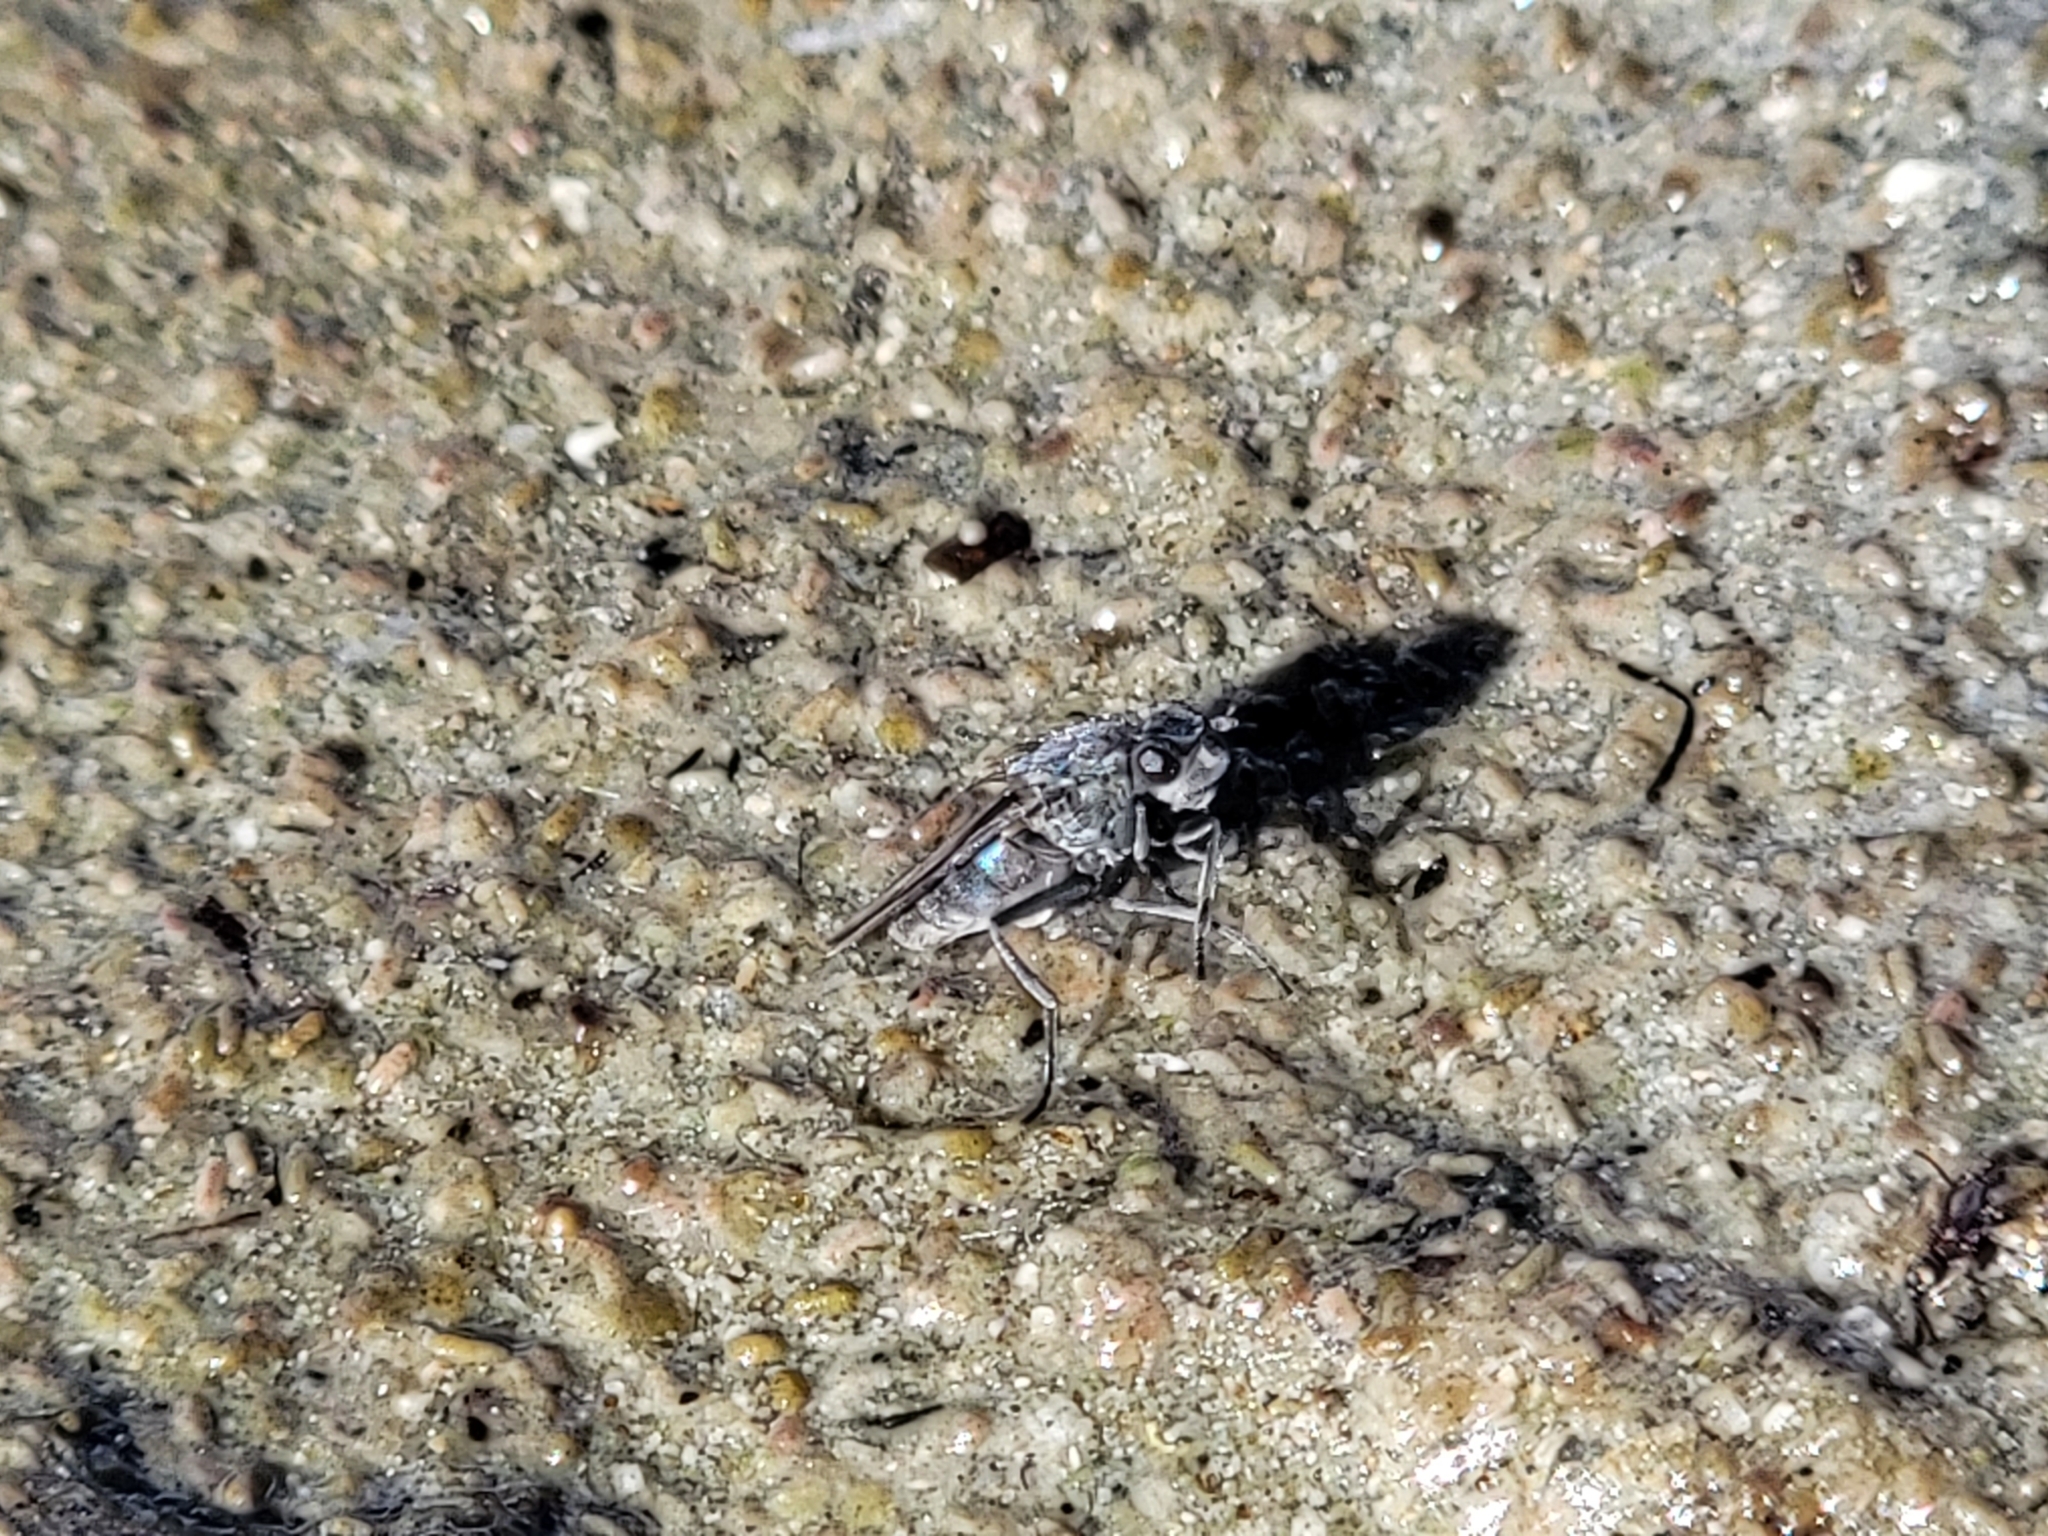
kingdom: Animalia
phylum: Arthropoda
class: Insecta
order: Diptera
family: Ephydridae
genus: Cirrula
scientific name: Cirrula hians
